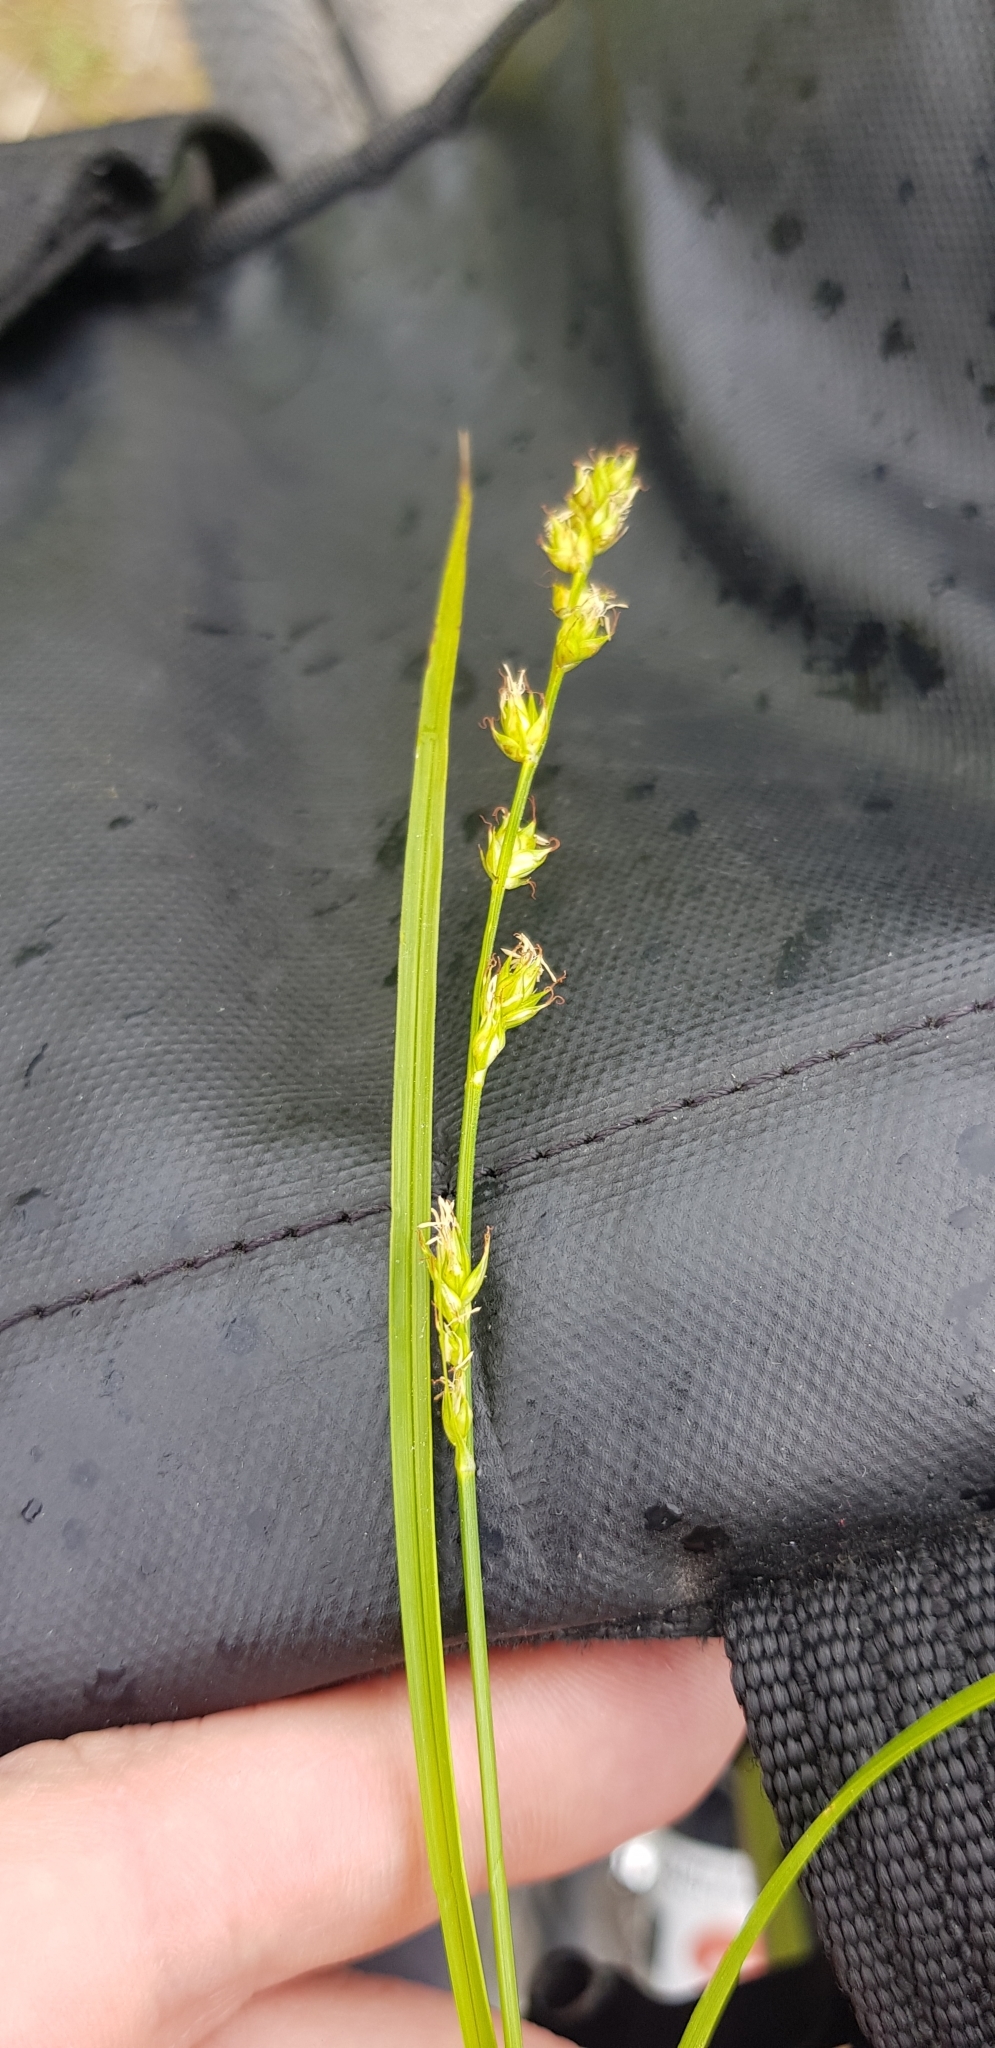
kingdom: Plantae
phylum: Tracheophyta
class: Liliopsida
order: Poales
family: Cyperaceae
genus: Carex
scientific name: Carex divulsa
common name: Grassland sedge
